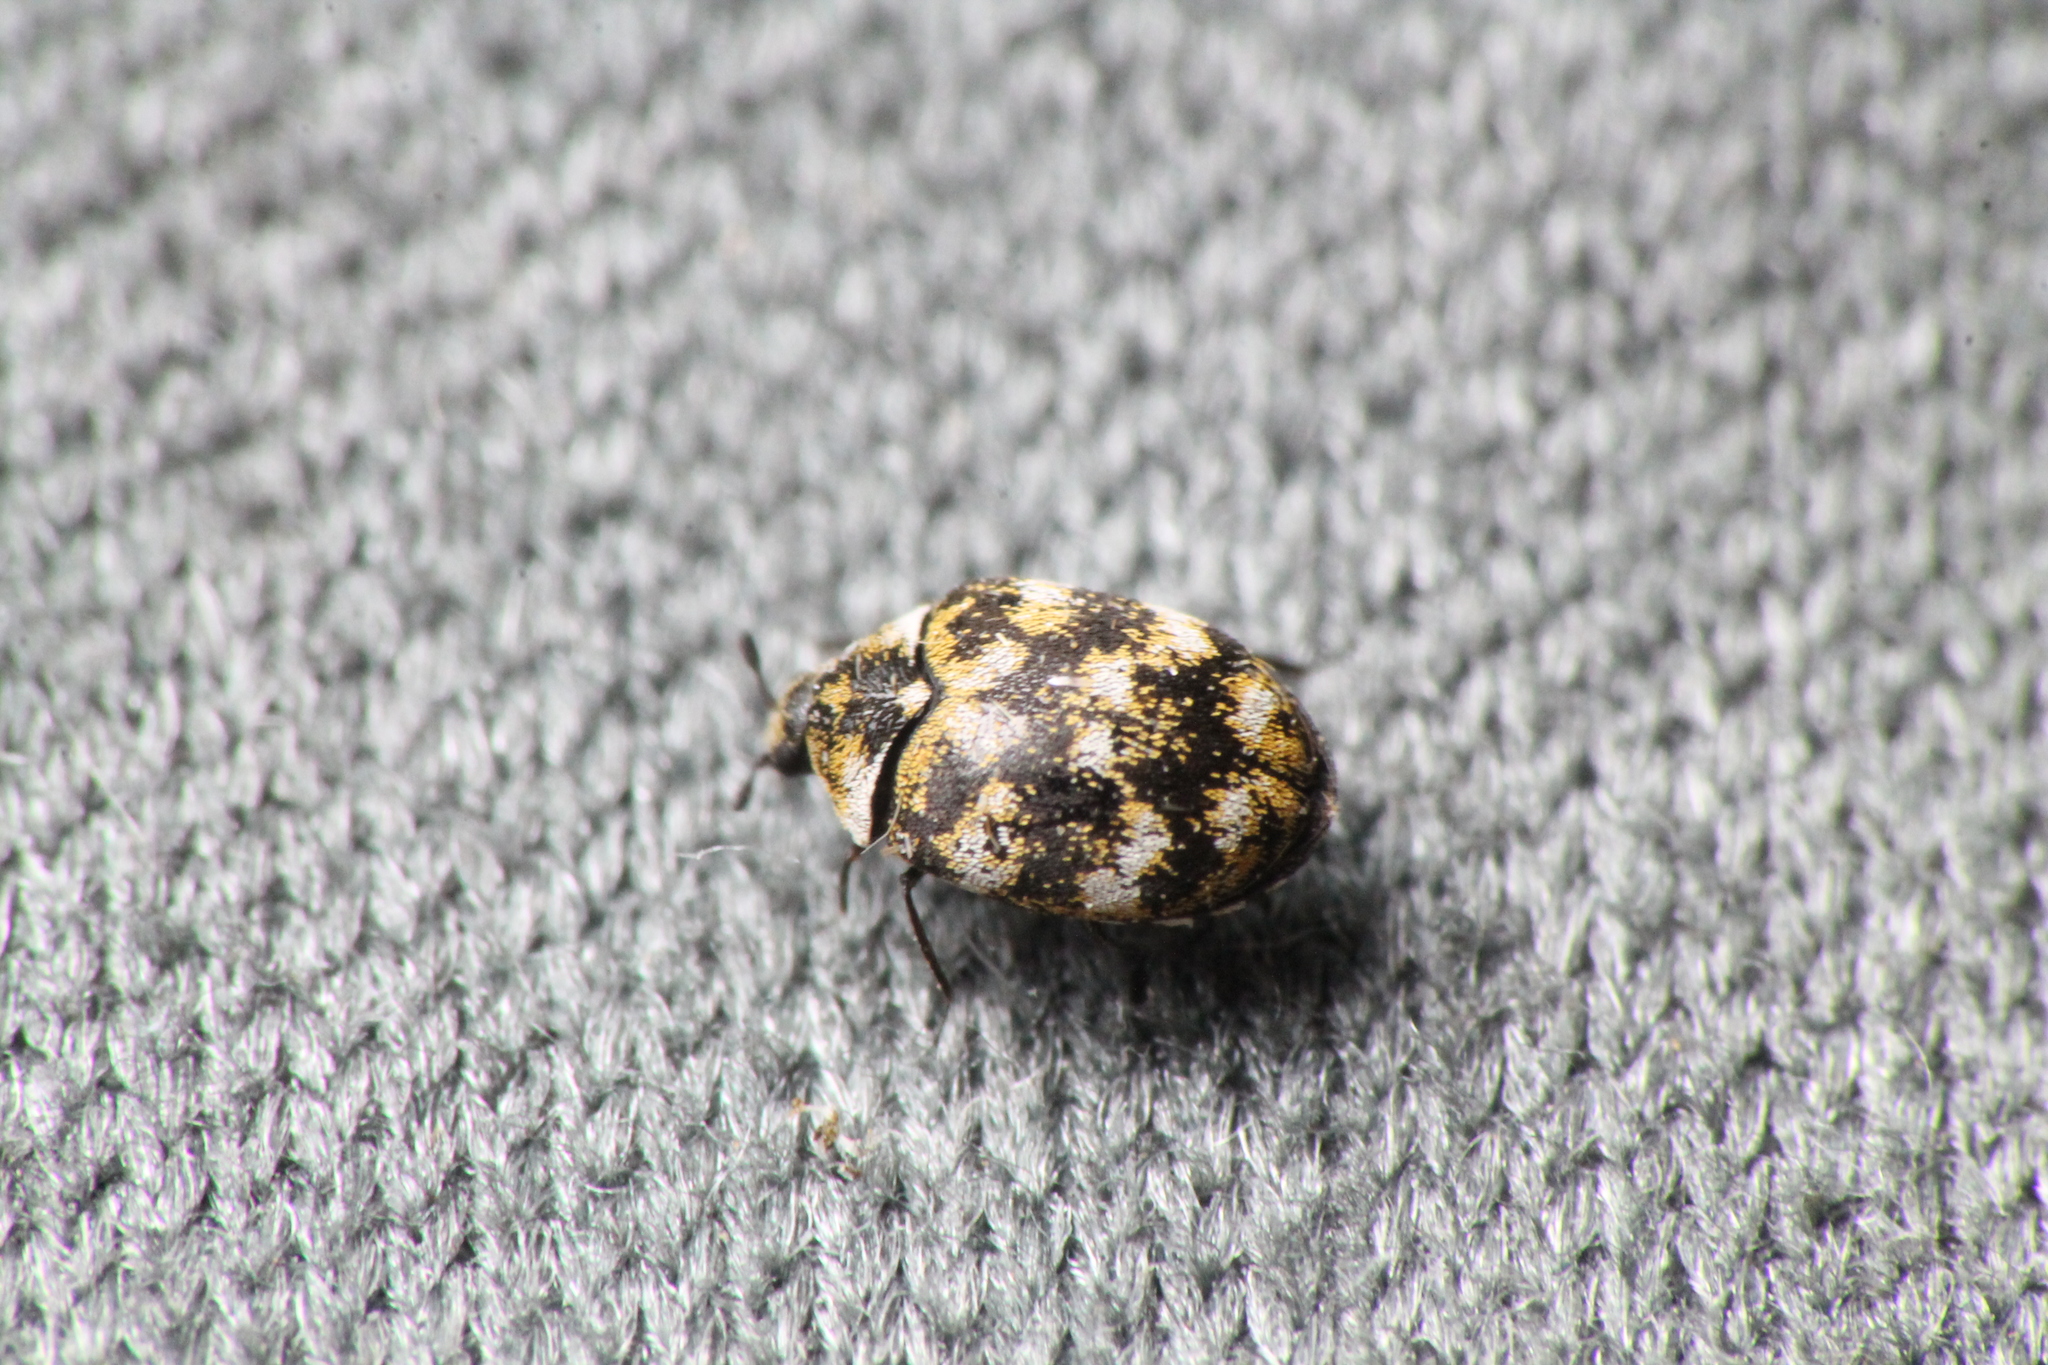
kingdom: Animalia
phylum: Arthropoda
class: Insecta
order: Coleoptera
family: Dermestidae
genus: Anthrenus
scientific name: Anthrenus verbasci
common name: Varied carpet beetle
